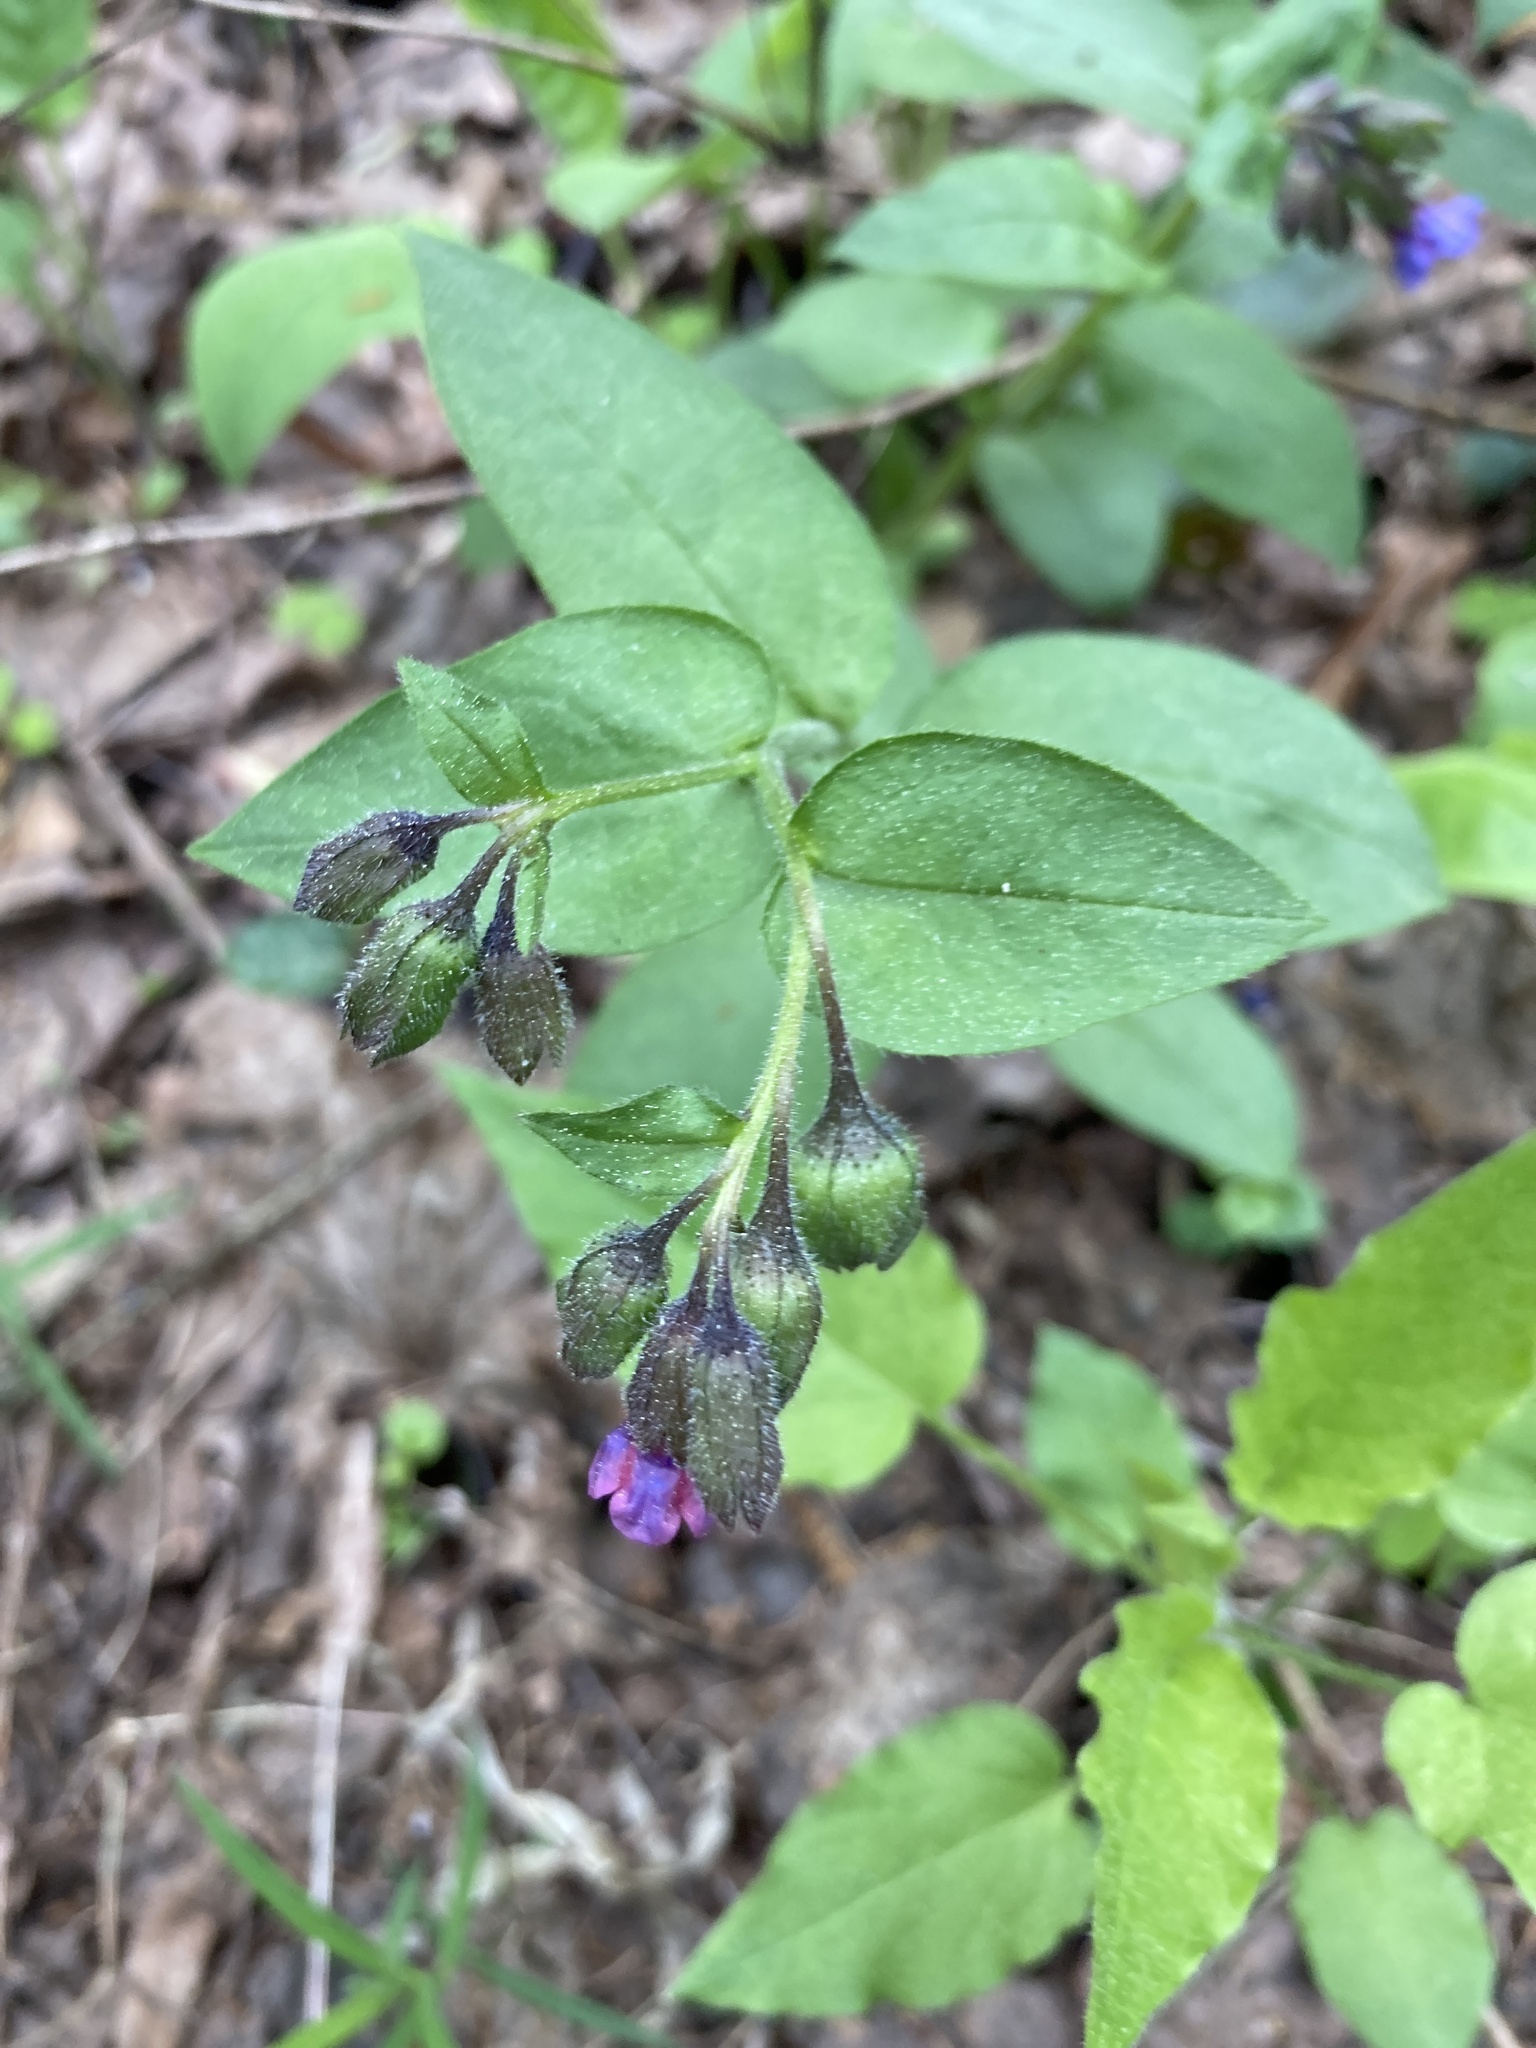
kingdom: Plantae
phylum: Tracheophyta
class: Magnoliopsida
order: Boraginales
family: Boraginaceae
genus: Pulmonaria
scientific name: Pulmonaria obscura
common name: Suffolk lungwort
